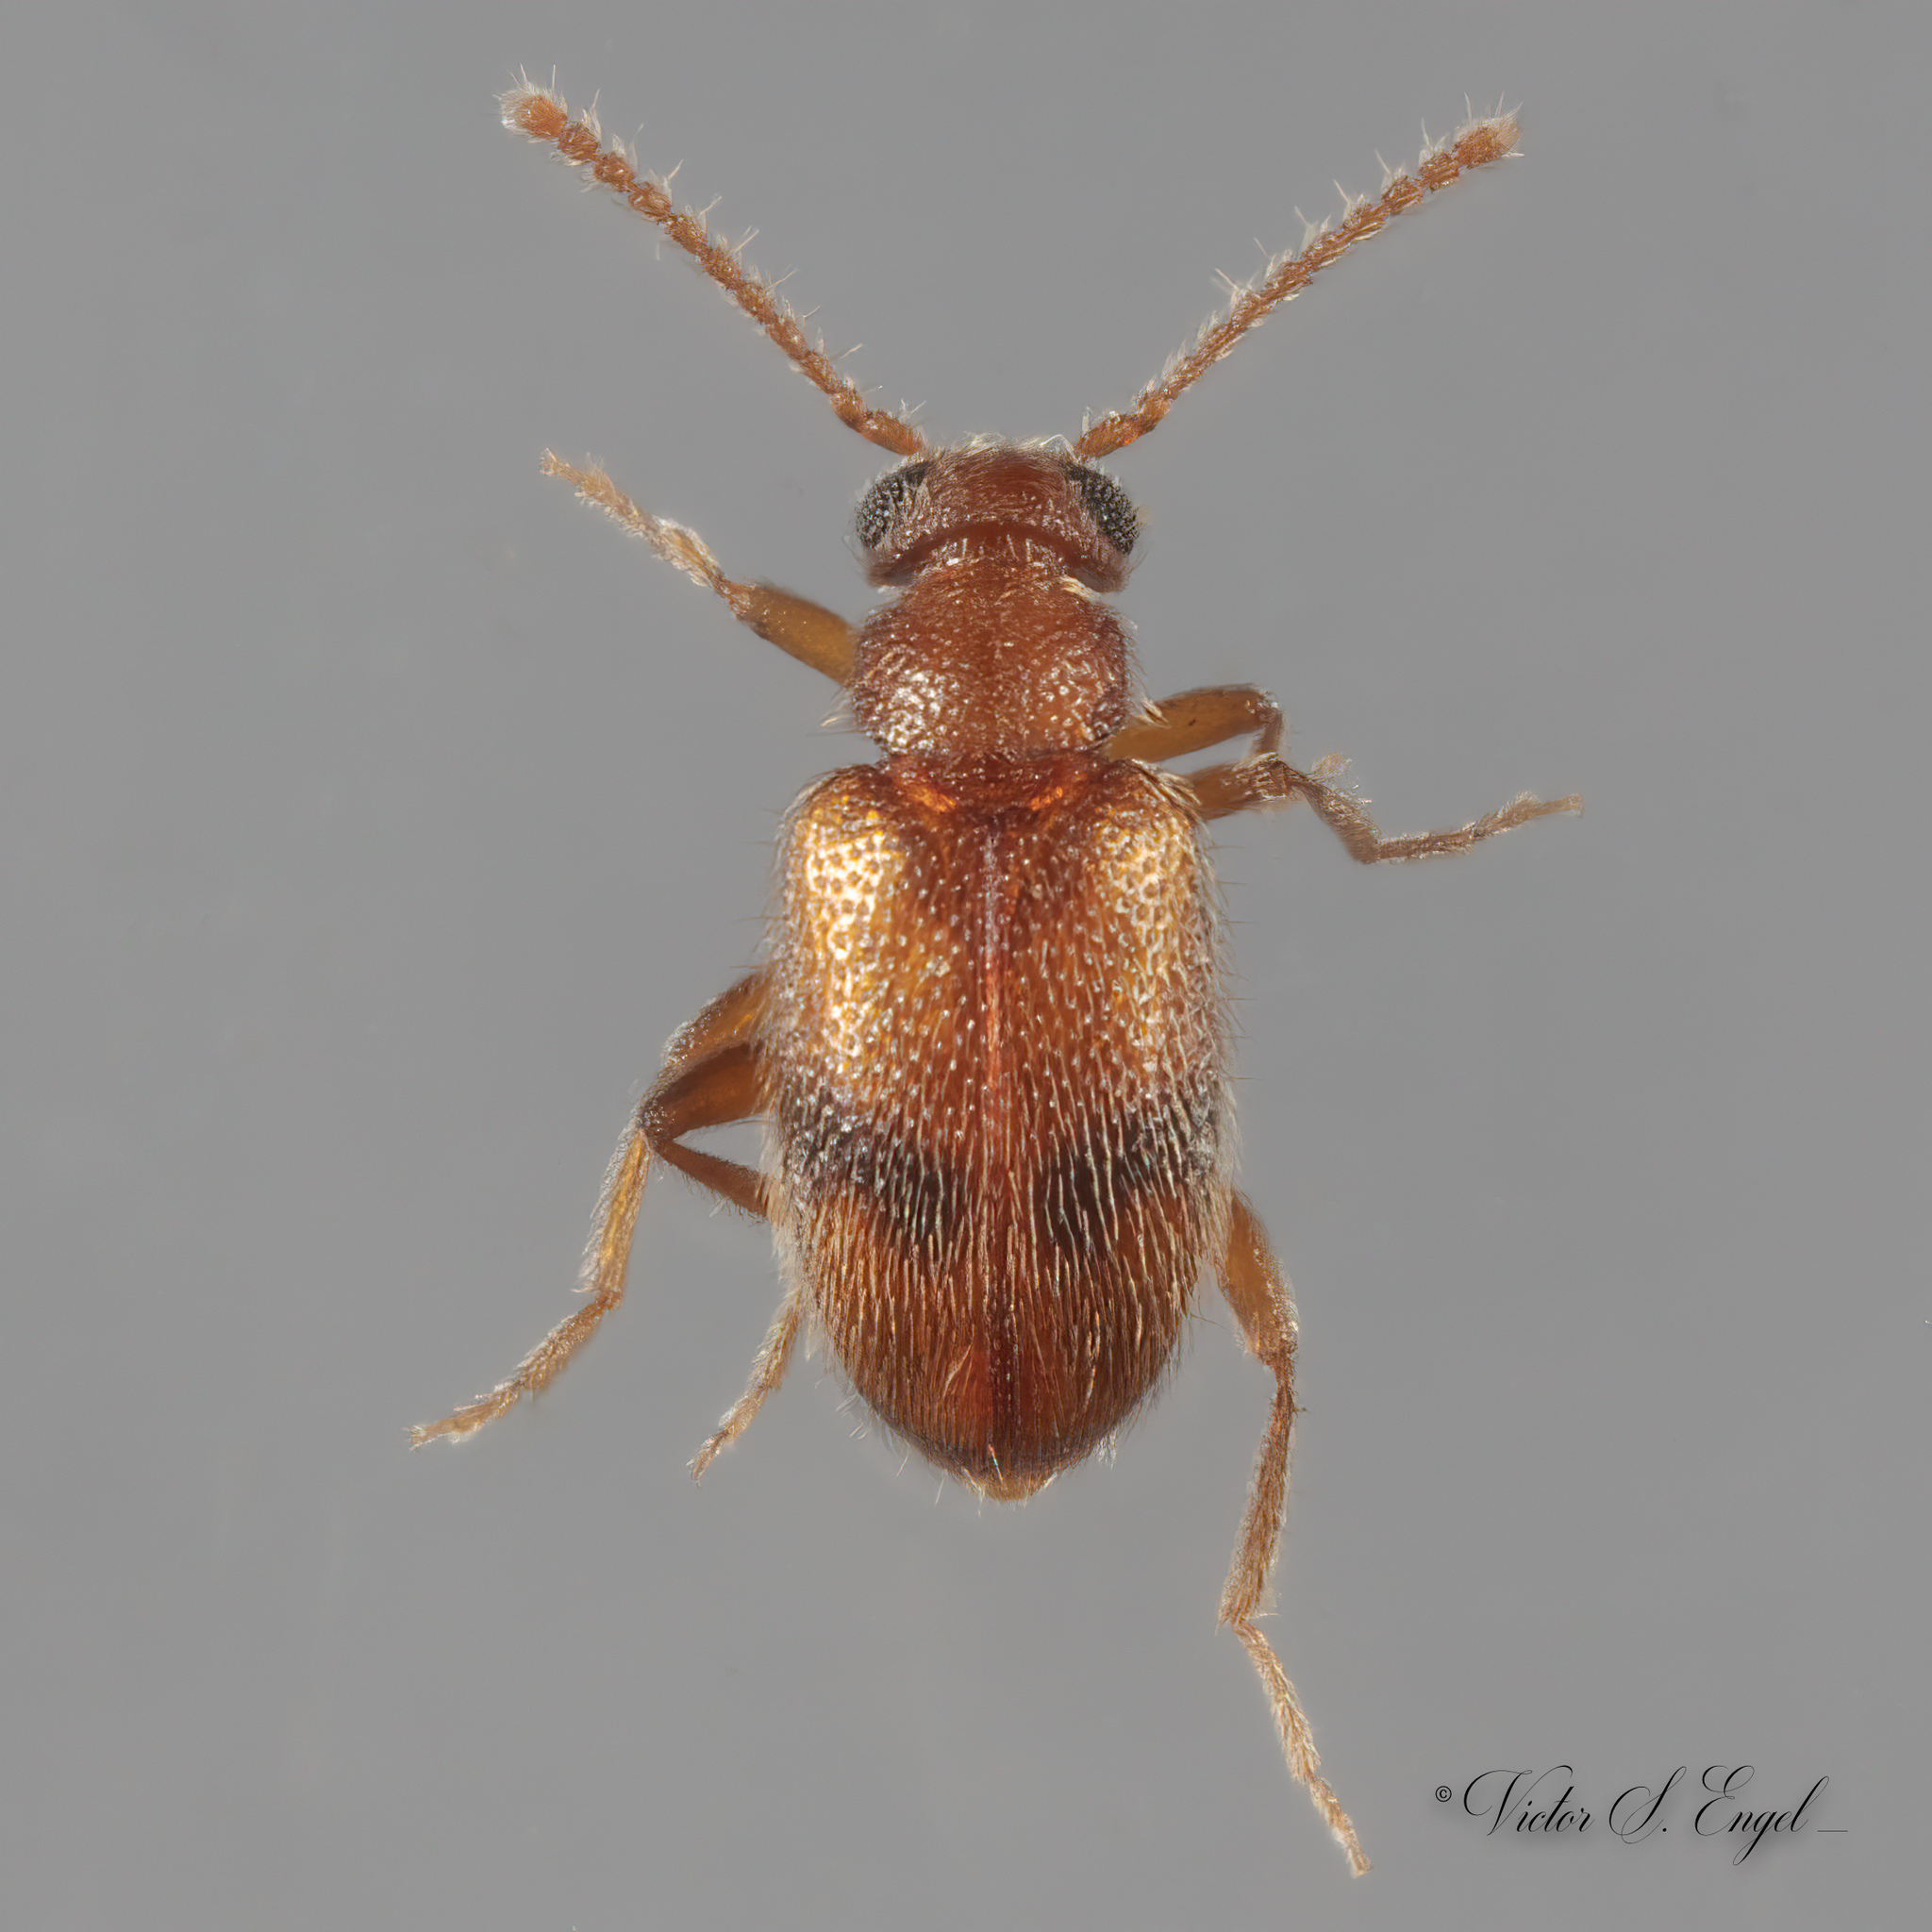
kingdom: Animalia
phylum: Arthropoda
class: Insecta
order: Coleoptera
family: Aderidae
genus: Zonantes
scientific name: Zonantes pallidus
